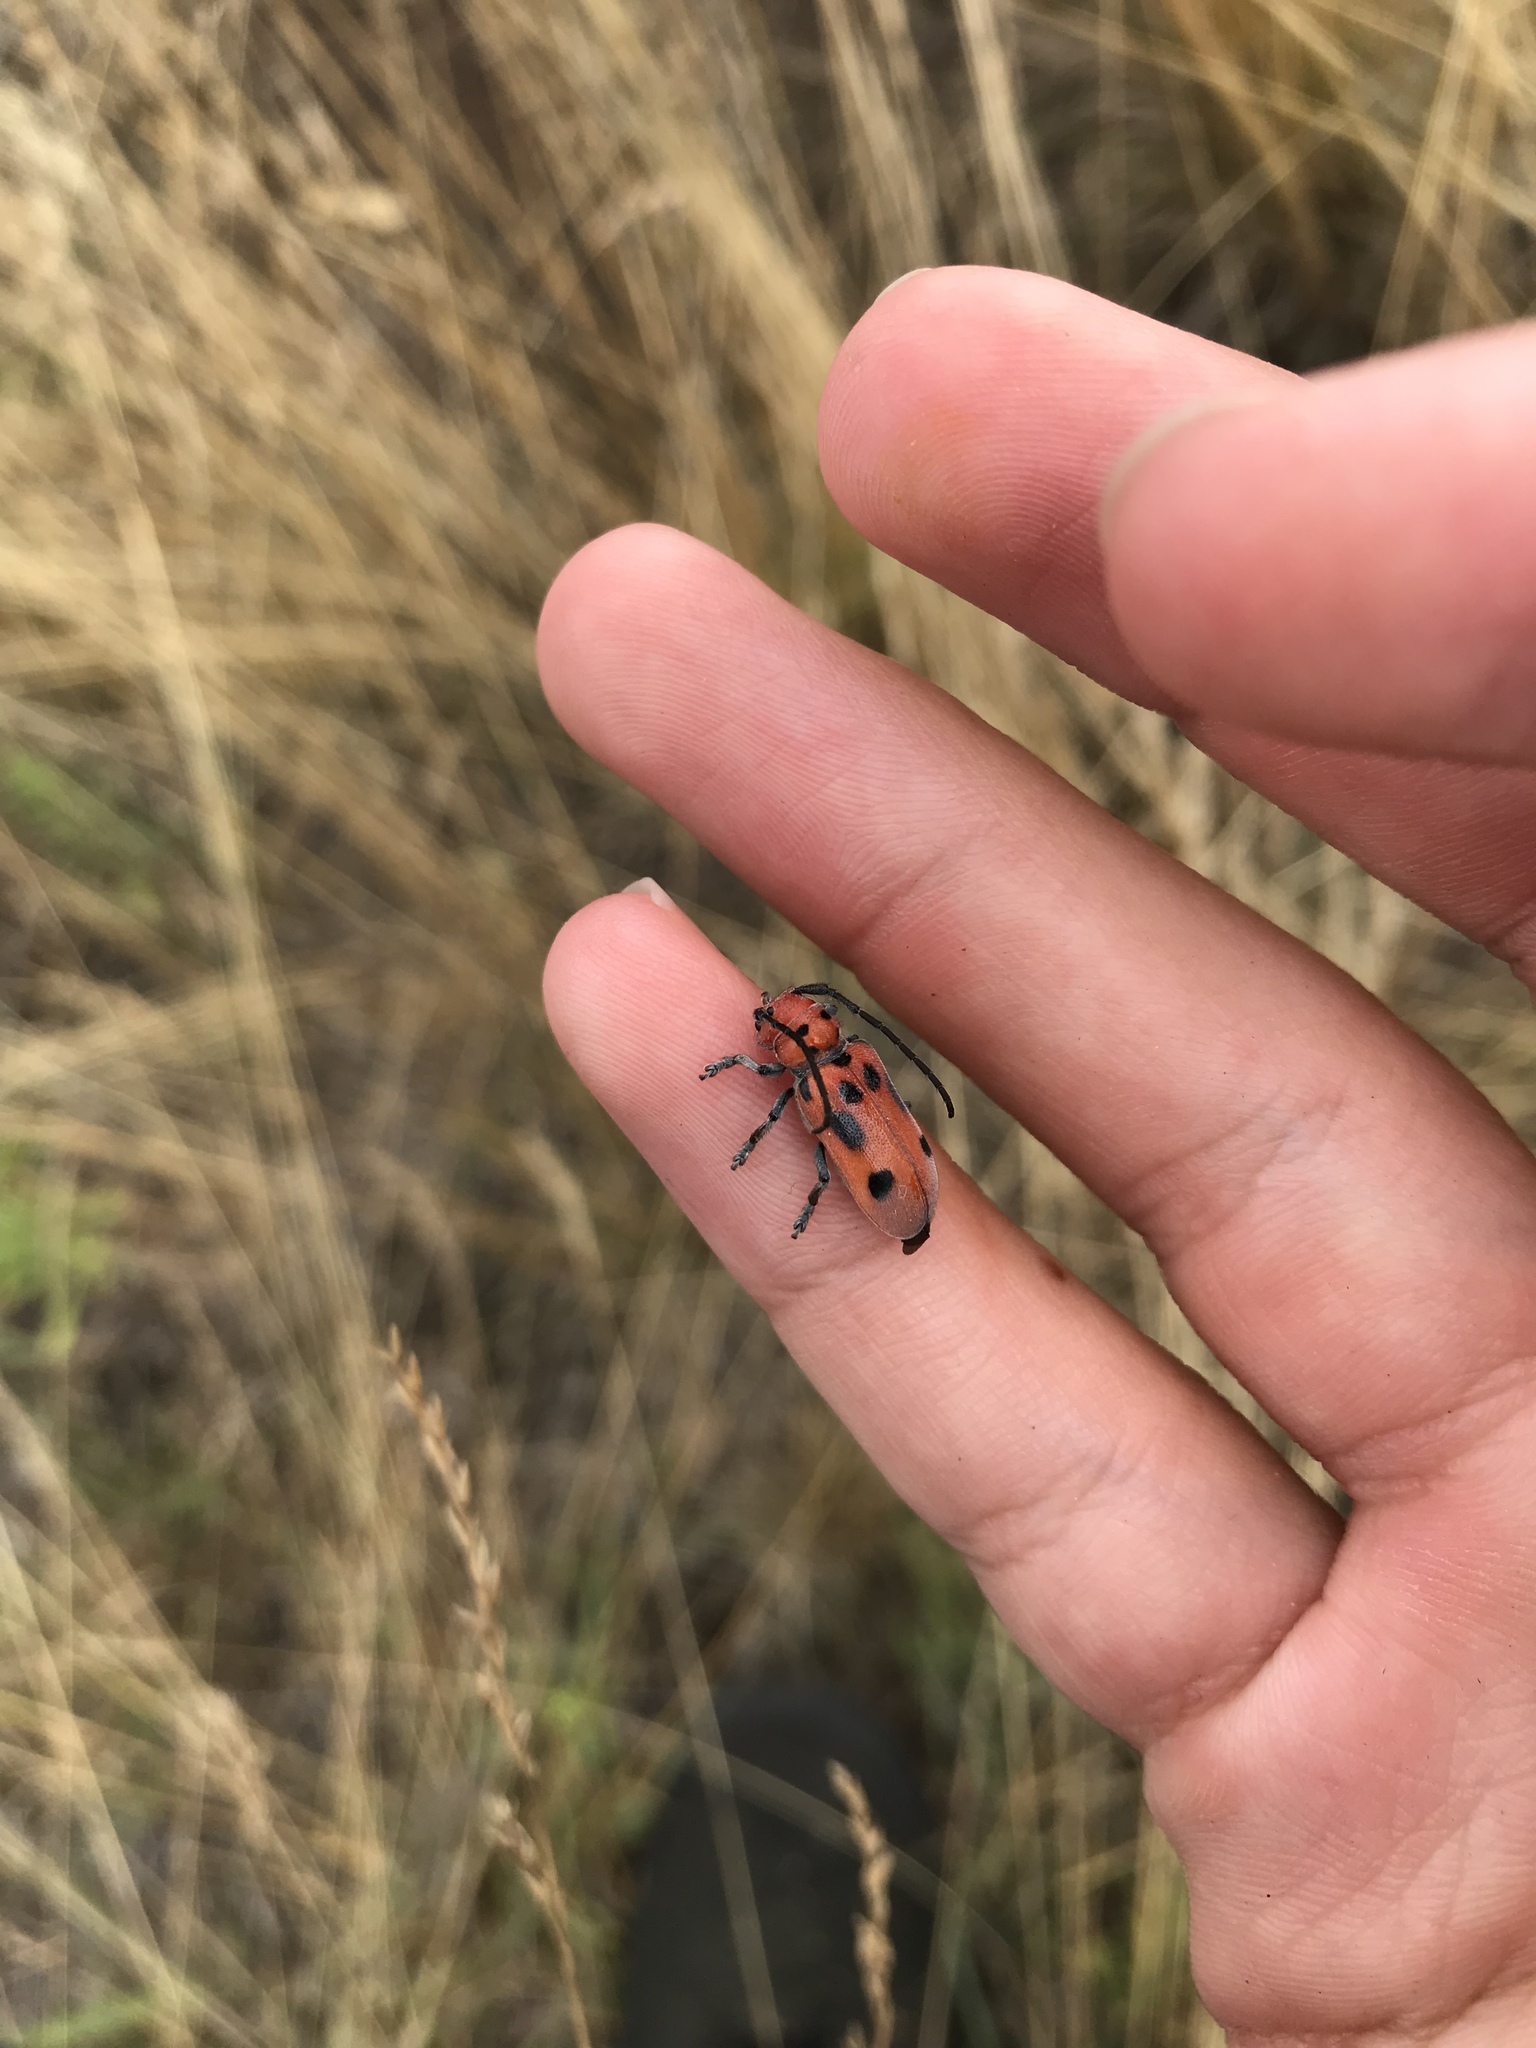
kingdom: Animalia
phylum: Arthropoda
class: Insecta
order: Coleoptera
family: Cerambycidae
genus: Tetraopes
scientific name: Tetraopes tetrophthalmus
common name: Red milkweed beetle
